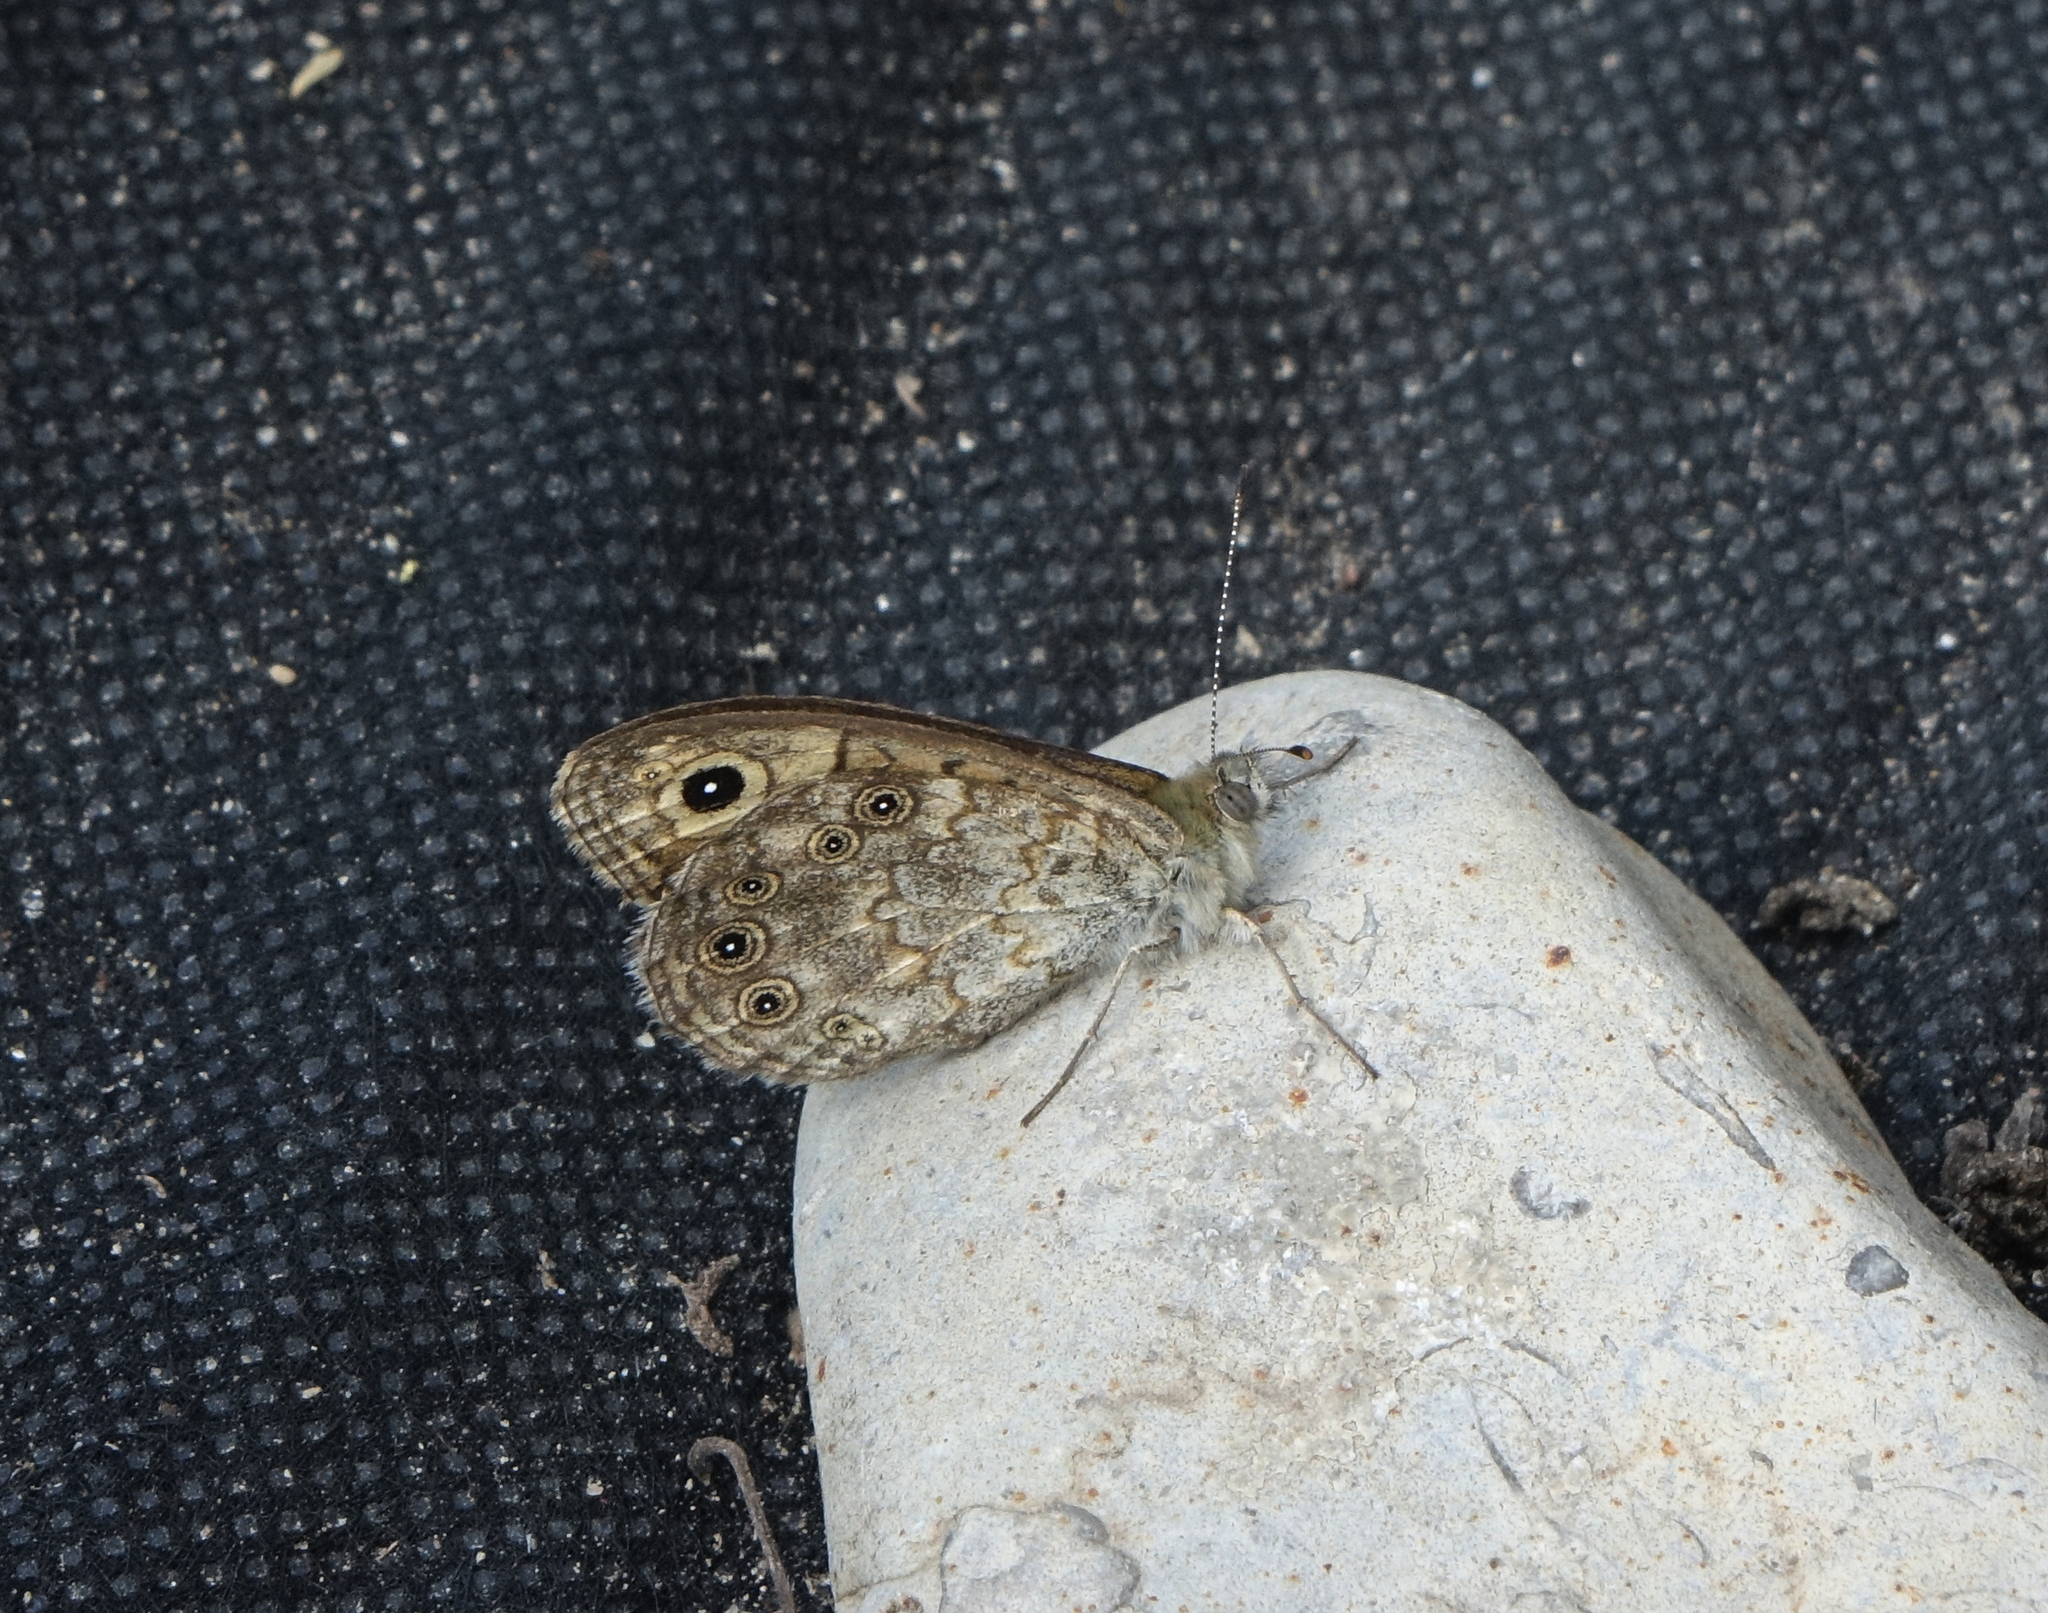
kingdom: Animalia
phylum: Arthropoda
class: Insecta
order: Lepidoptera
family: Nymphalidae
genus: Pararge
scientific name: Pararge Lasiommata megera
